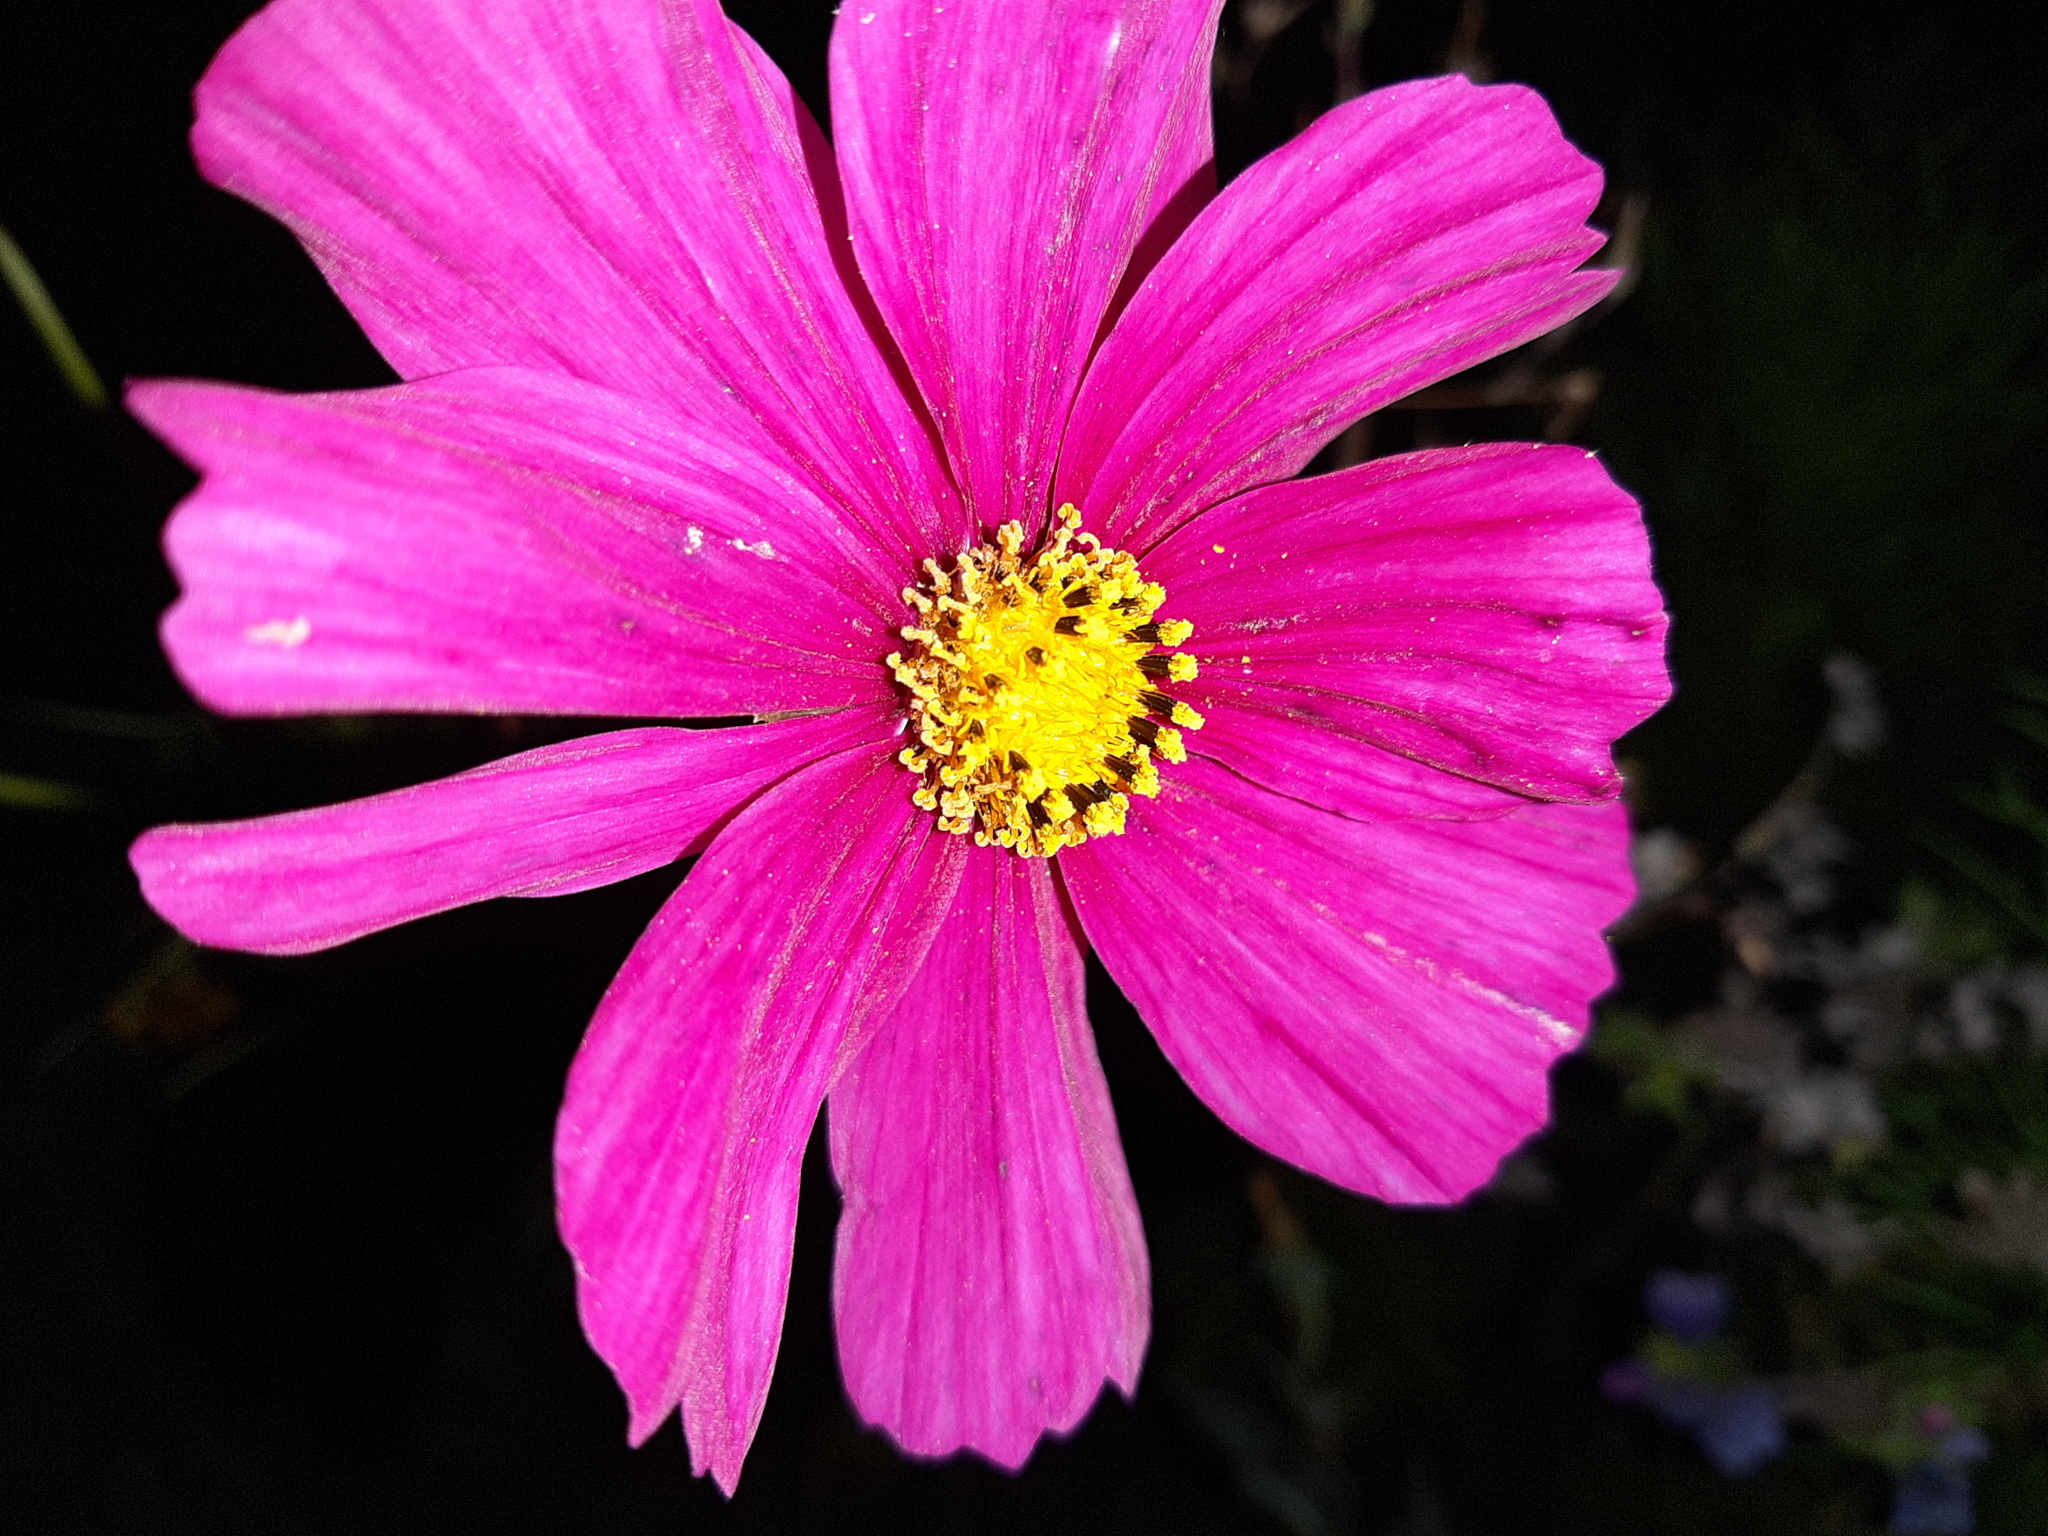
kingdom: Plantae
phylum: Tracheophyta
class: Magnoliopsida
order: Asterales
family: Asteraceae
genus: Cosmos
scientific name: Cosmos bipinnatus
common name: Garden cosmos
